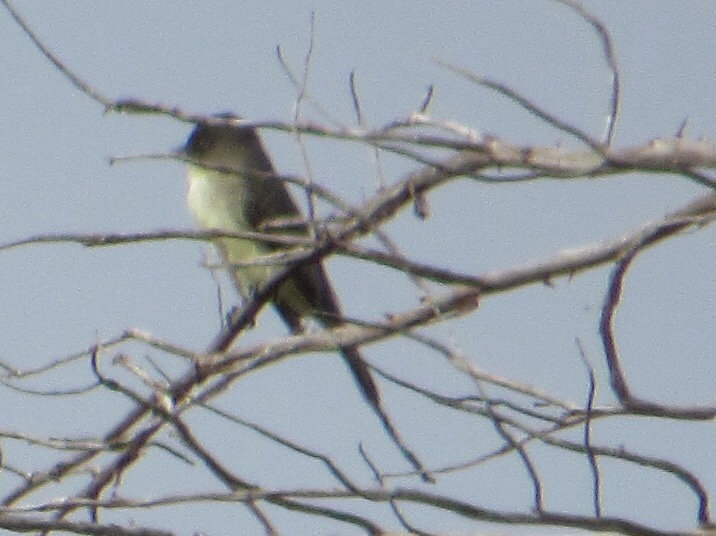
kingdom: Animalia
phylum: Chordata
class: Aves
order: Passeriformes
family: Tyrannidae
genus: Sayornis
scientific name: Sayornis phoebe
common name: Eastern phoebe
